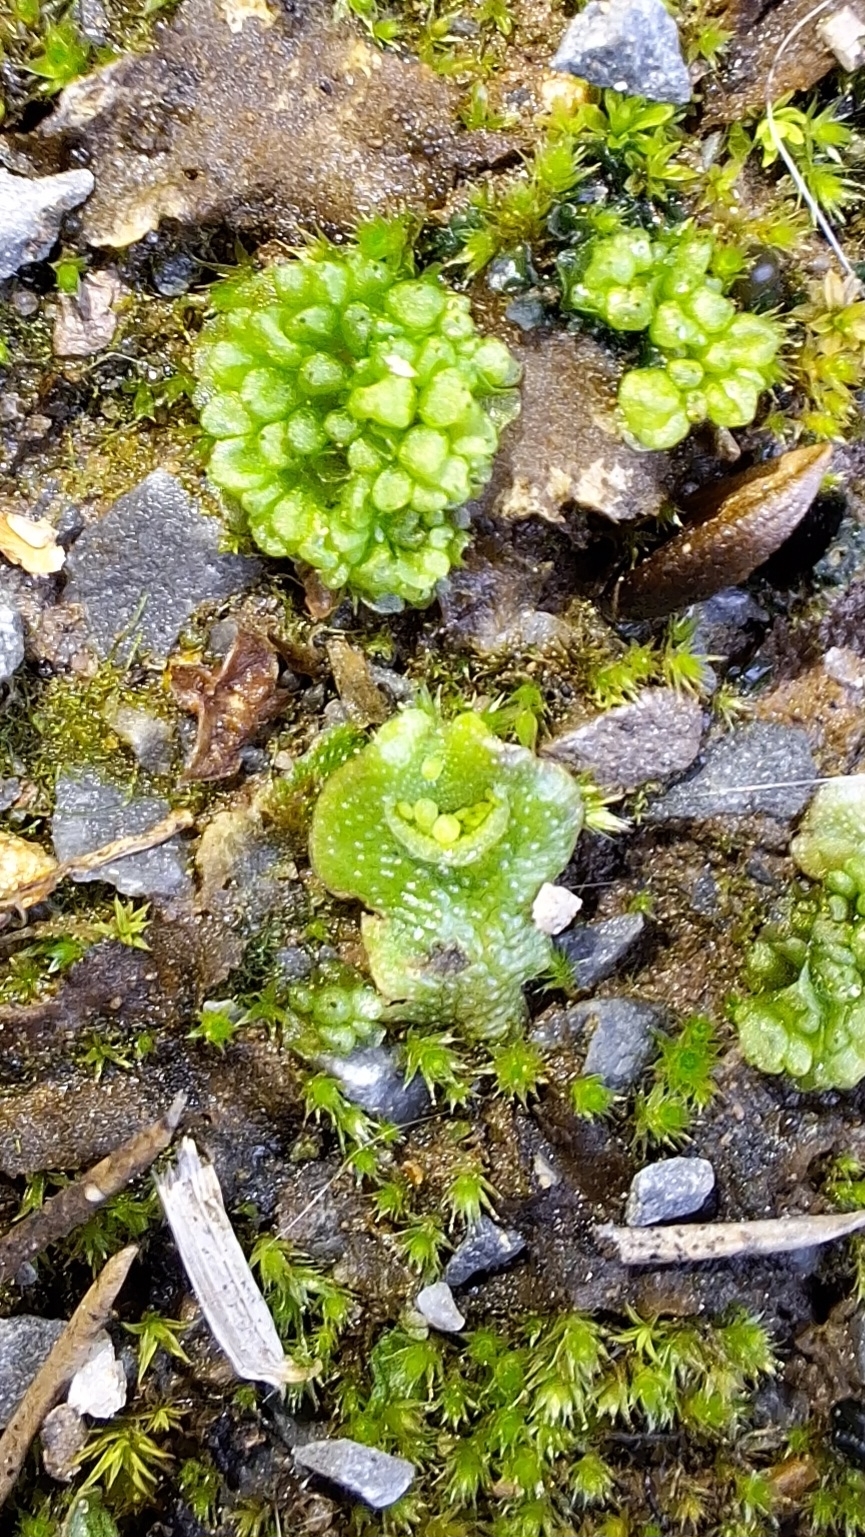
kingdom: Plantae
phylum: Marchantiophyta
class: Marchantiopsida
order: Lunulariales
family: Lunulariaceae
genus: Lunularia
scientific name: Lunularia cruciata
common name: Crescent-cup liverwort
